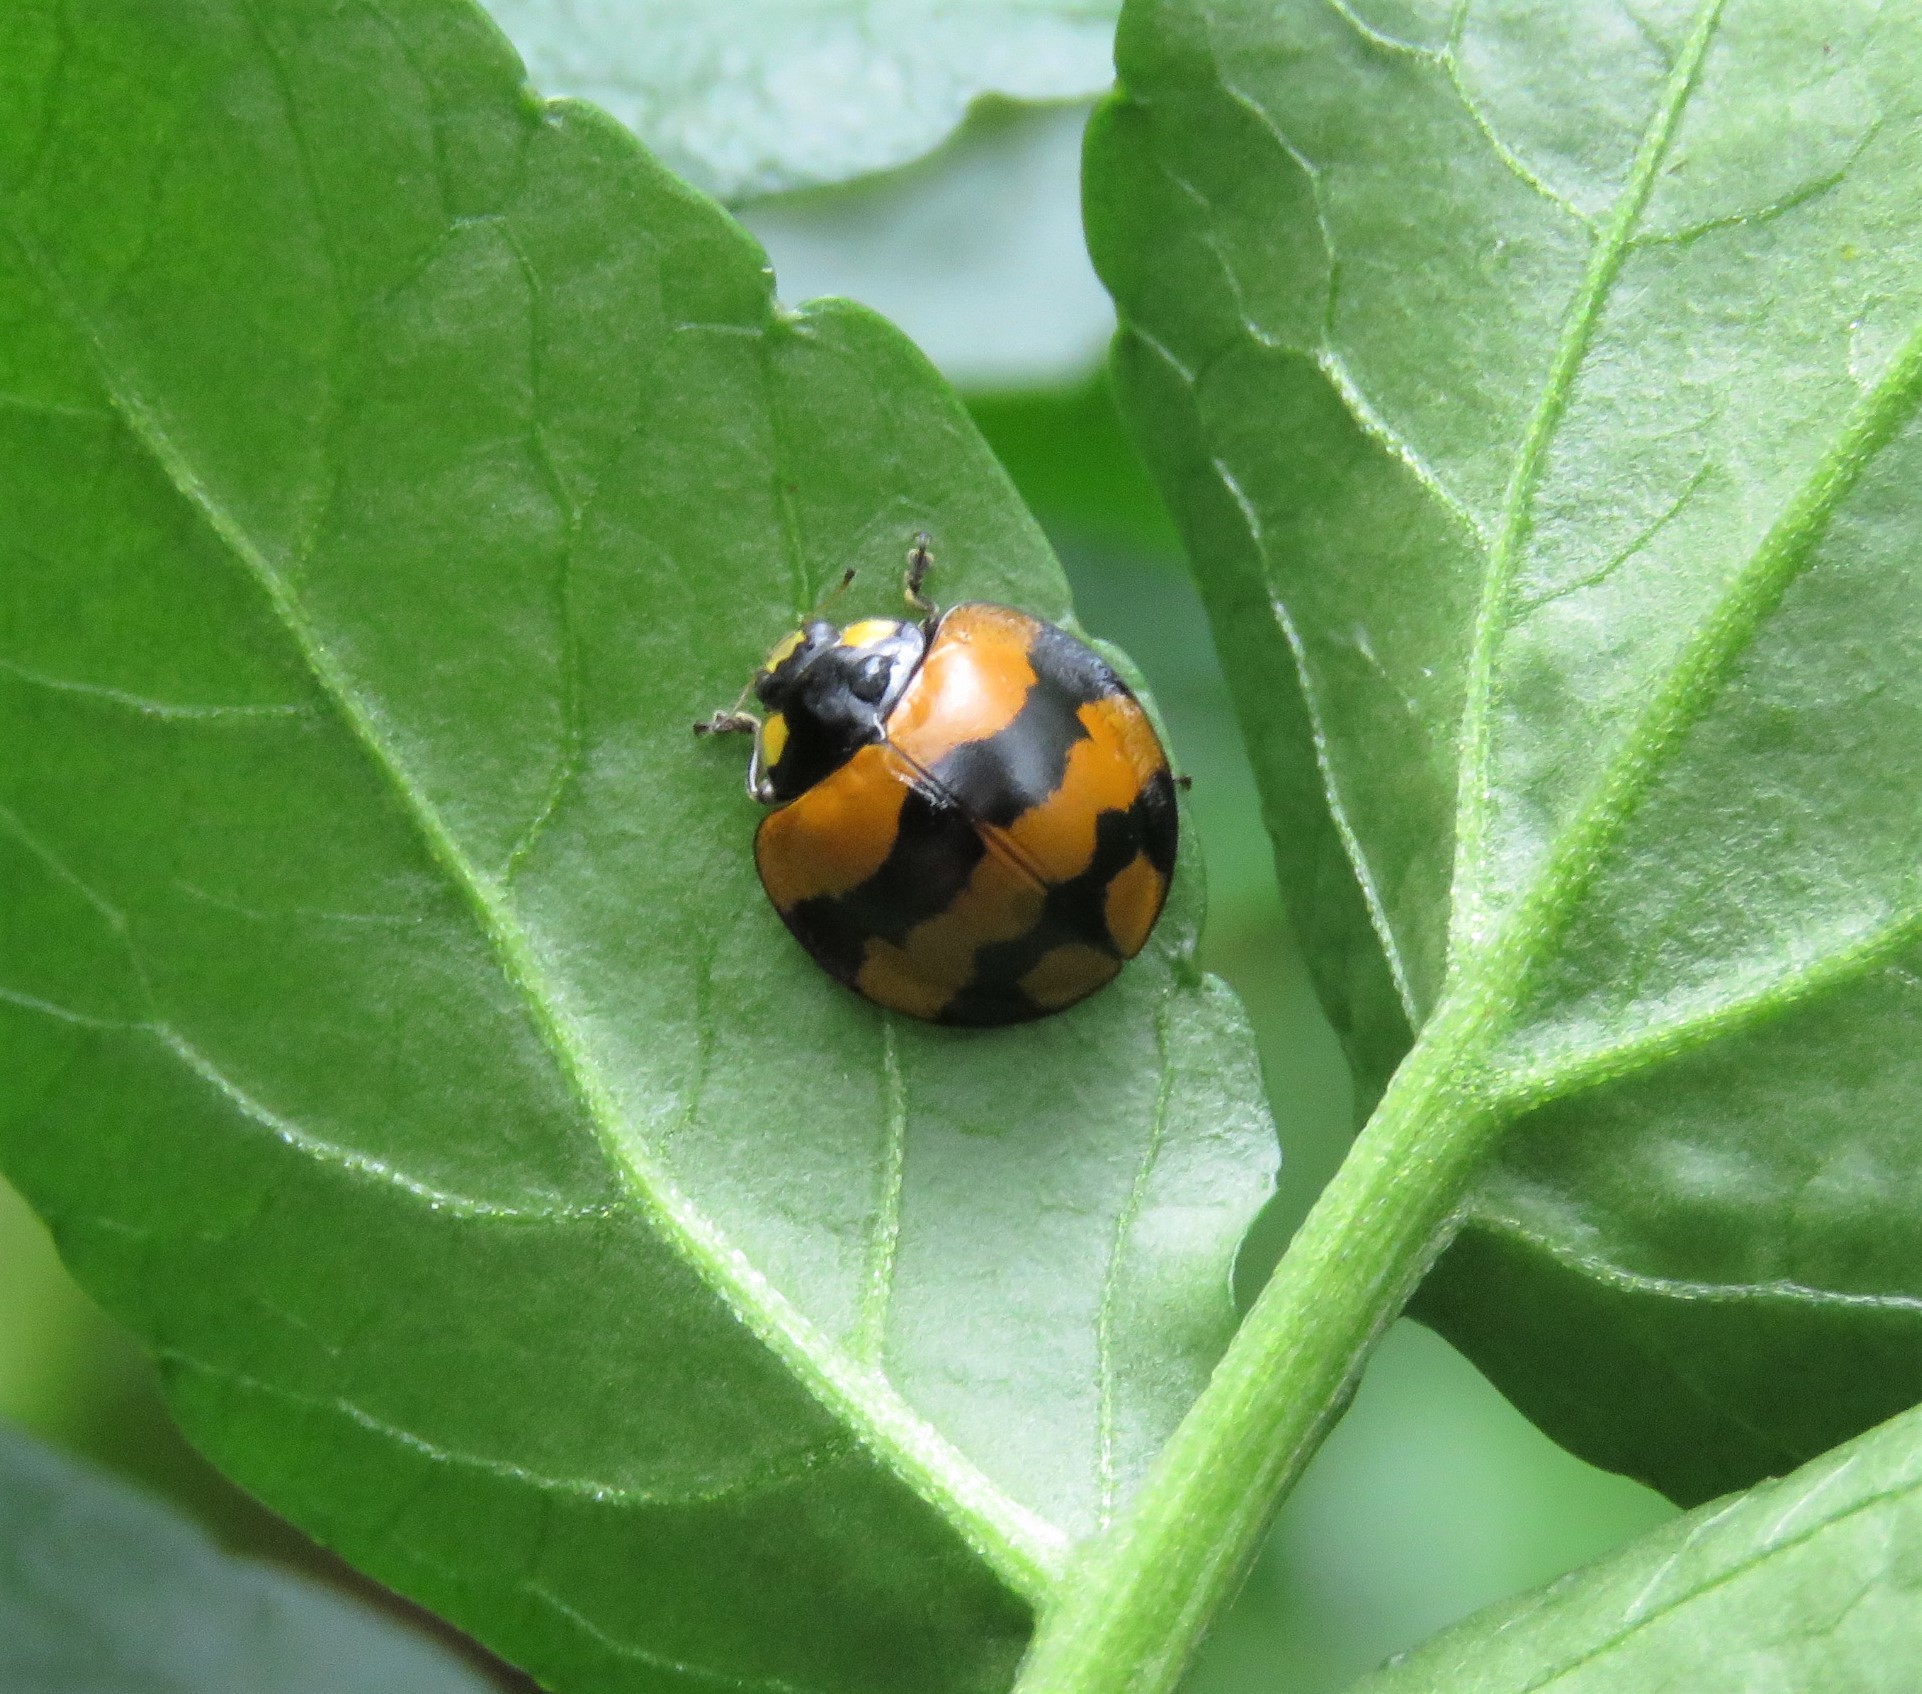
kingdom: Animalia
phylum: Arthropoda
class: Insecta
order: Coleoptera
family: Coccinellidae
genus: Neda
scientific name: Neda norrisi
